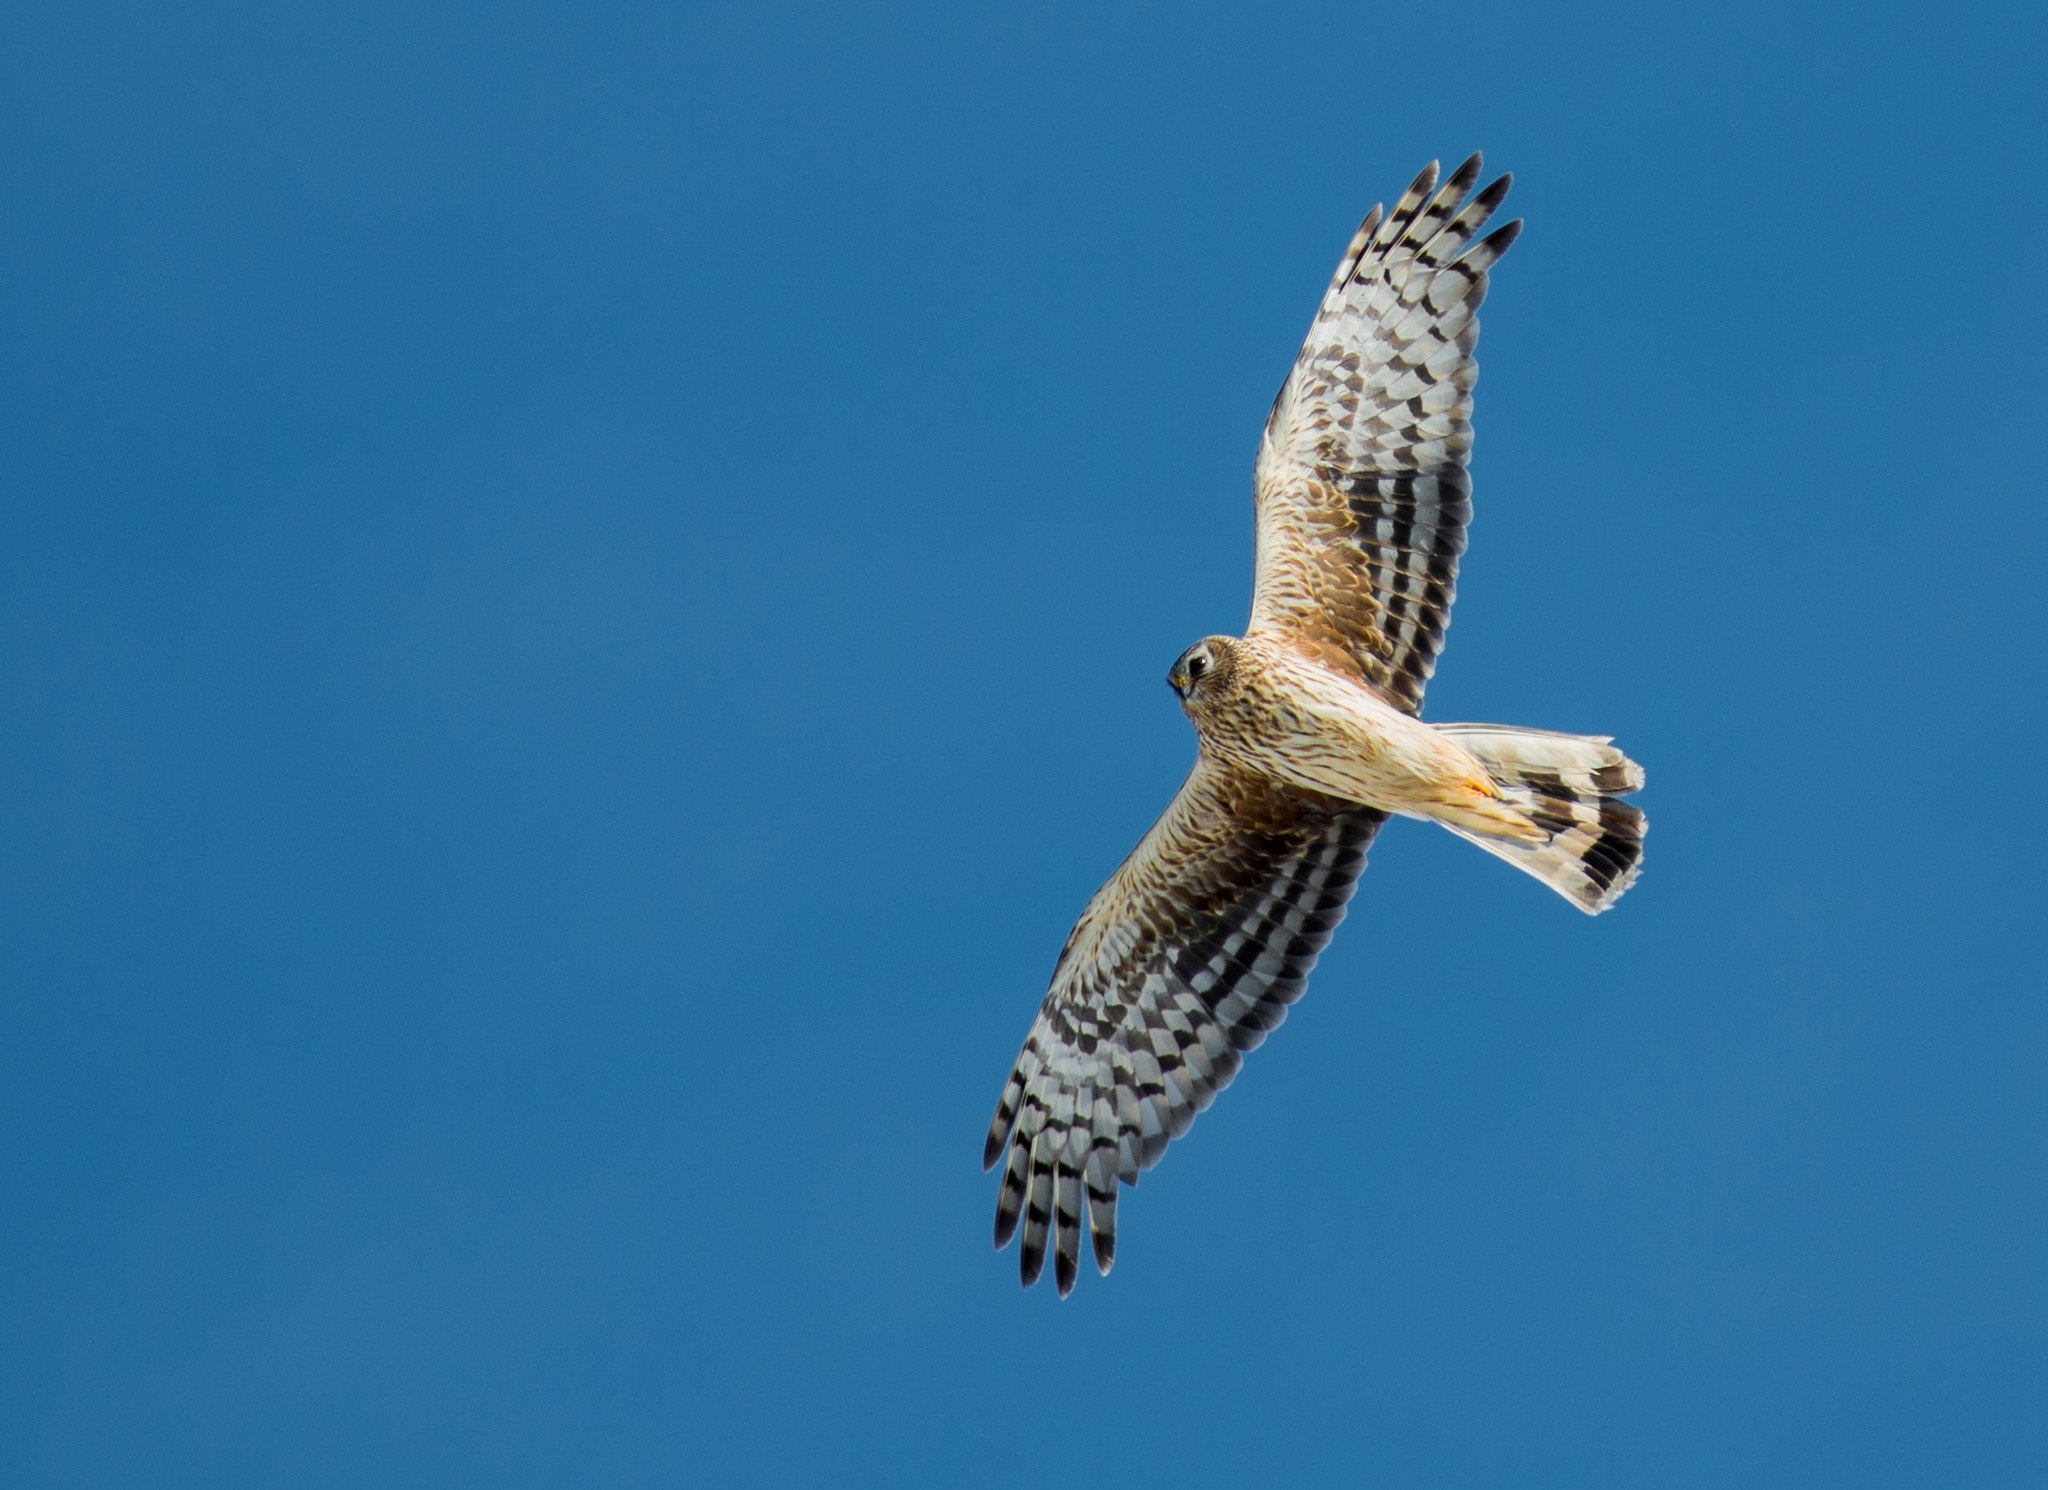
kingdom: Animalia
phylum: Chordata
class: Aves
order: Accipitriformes
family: Accipitridae
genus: Circus
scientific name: Circus cyaneus
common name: Hen harrier
